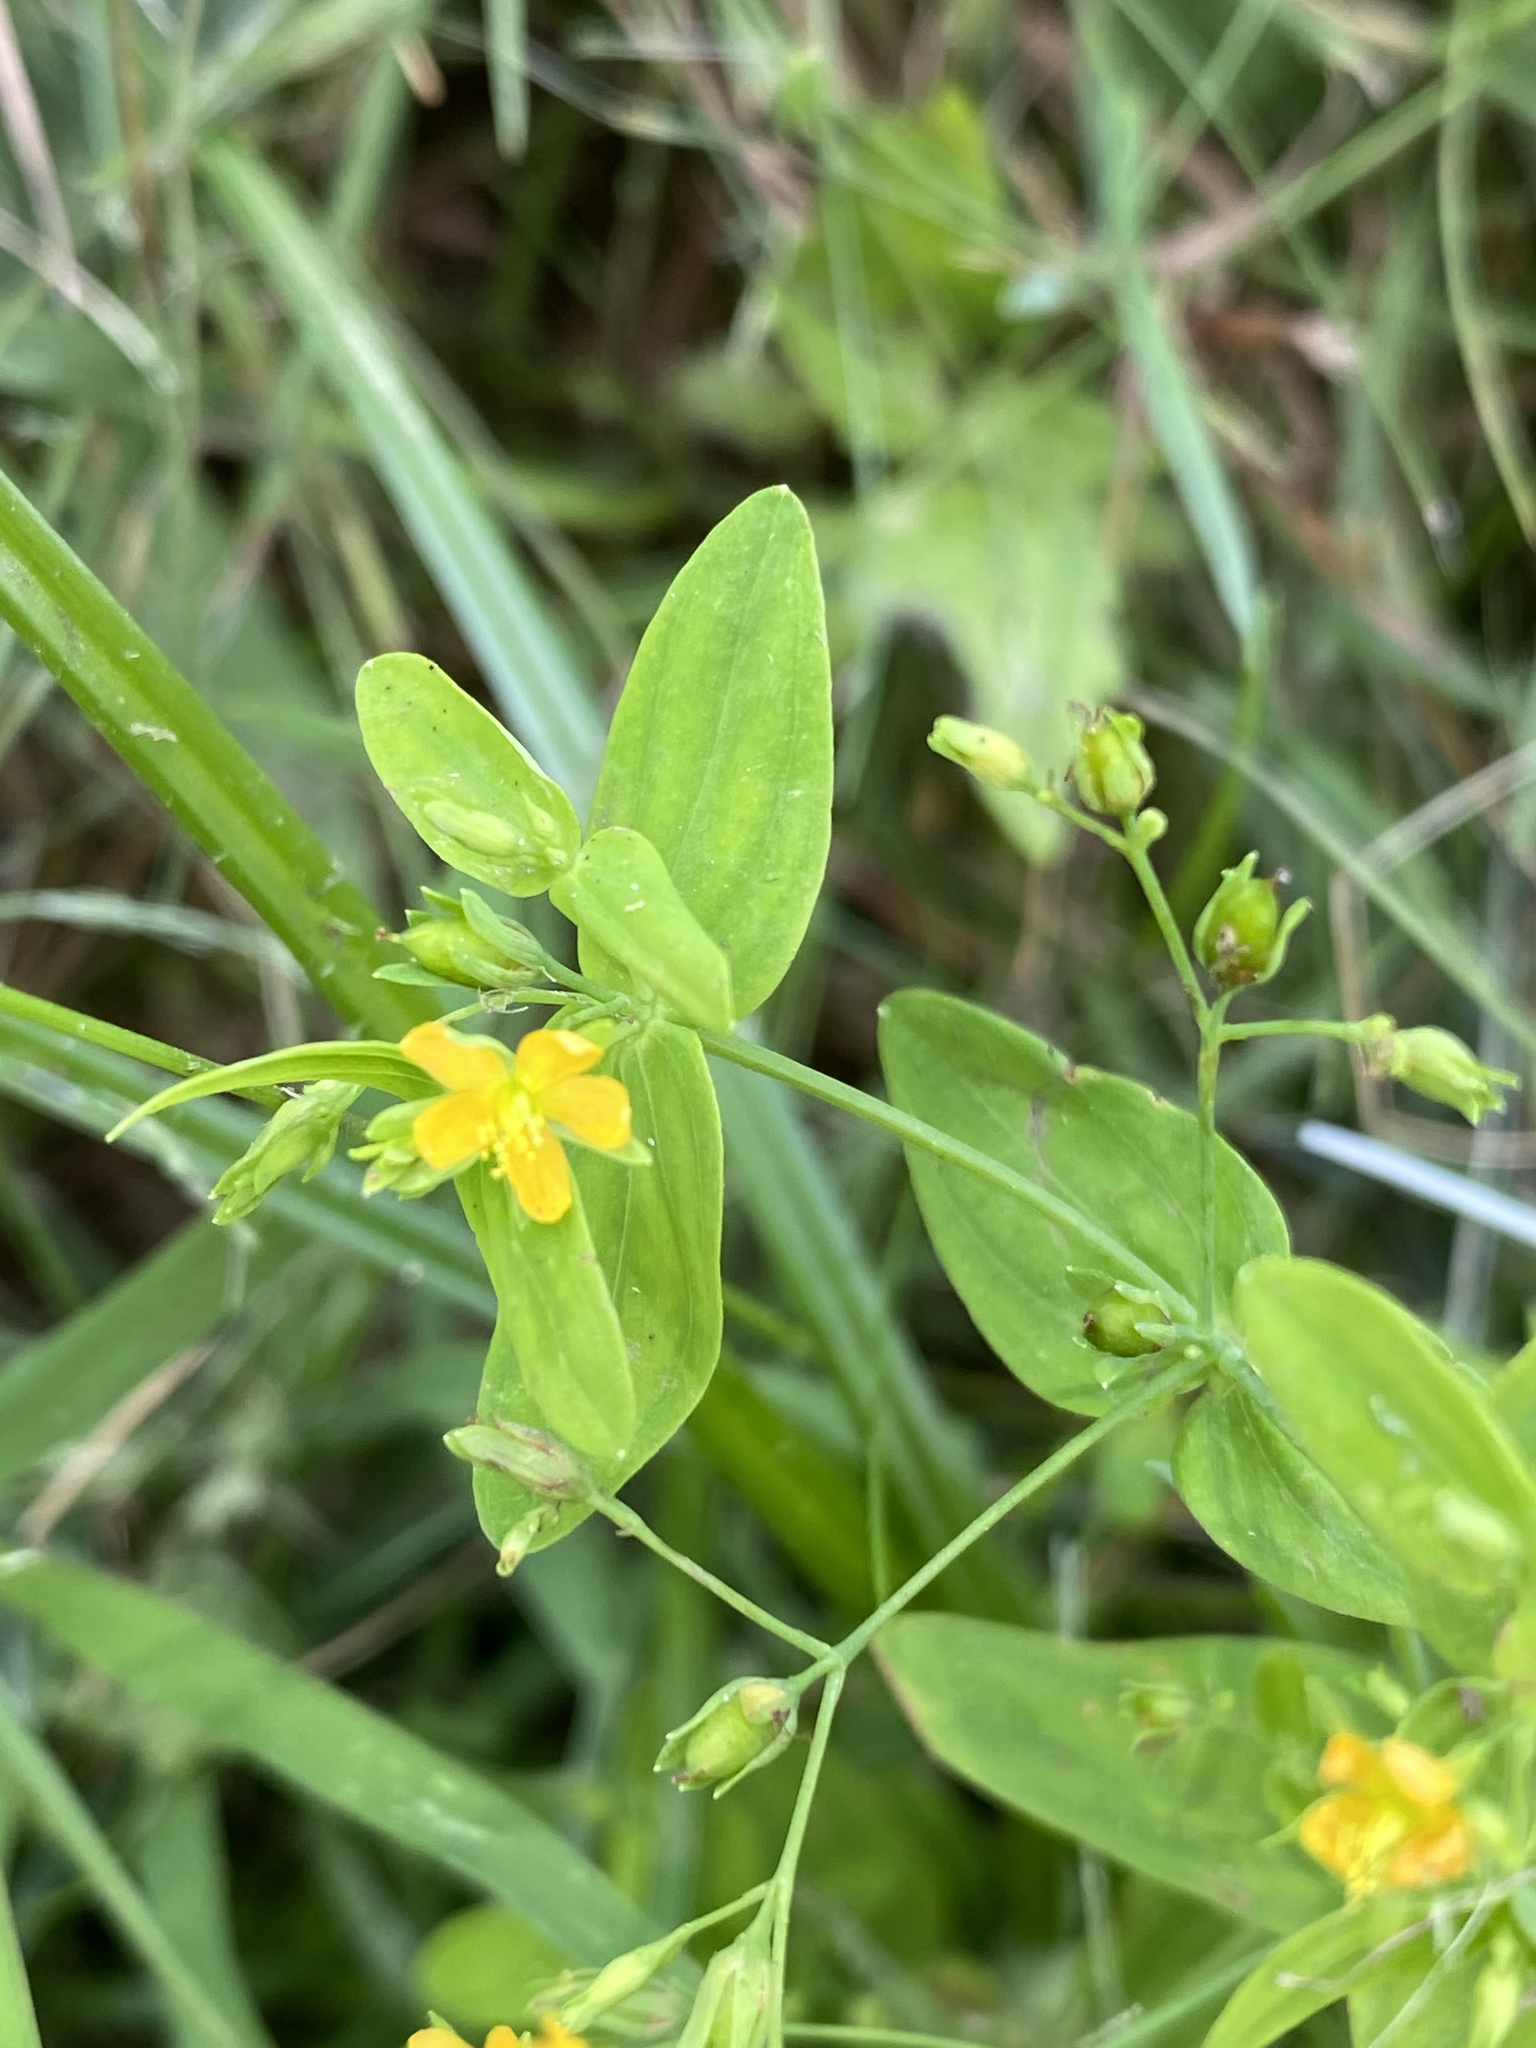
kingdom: Plantae
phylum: Tracheophyta
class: Magnoliopsida
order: Malpighiales
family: Hypericaceae
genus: Hypericum
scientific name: Hypericum mutilum
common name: Dwarf st. john's-wort
